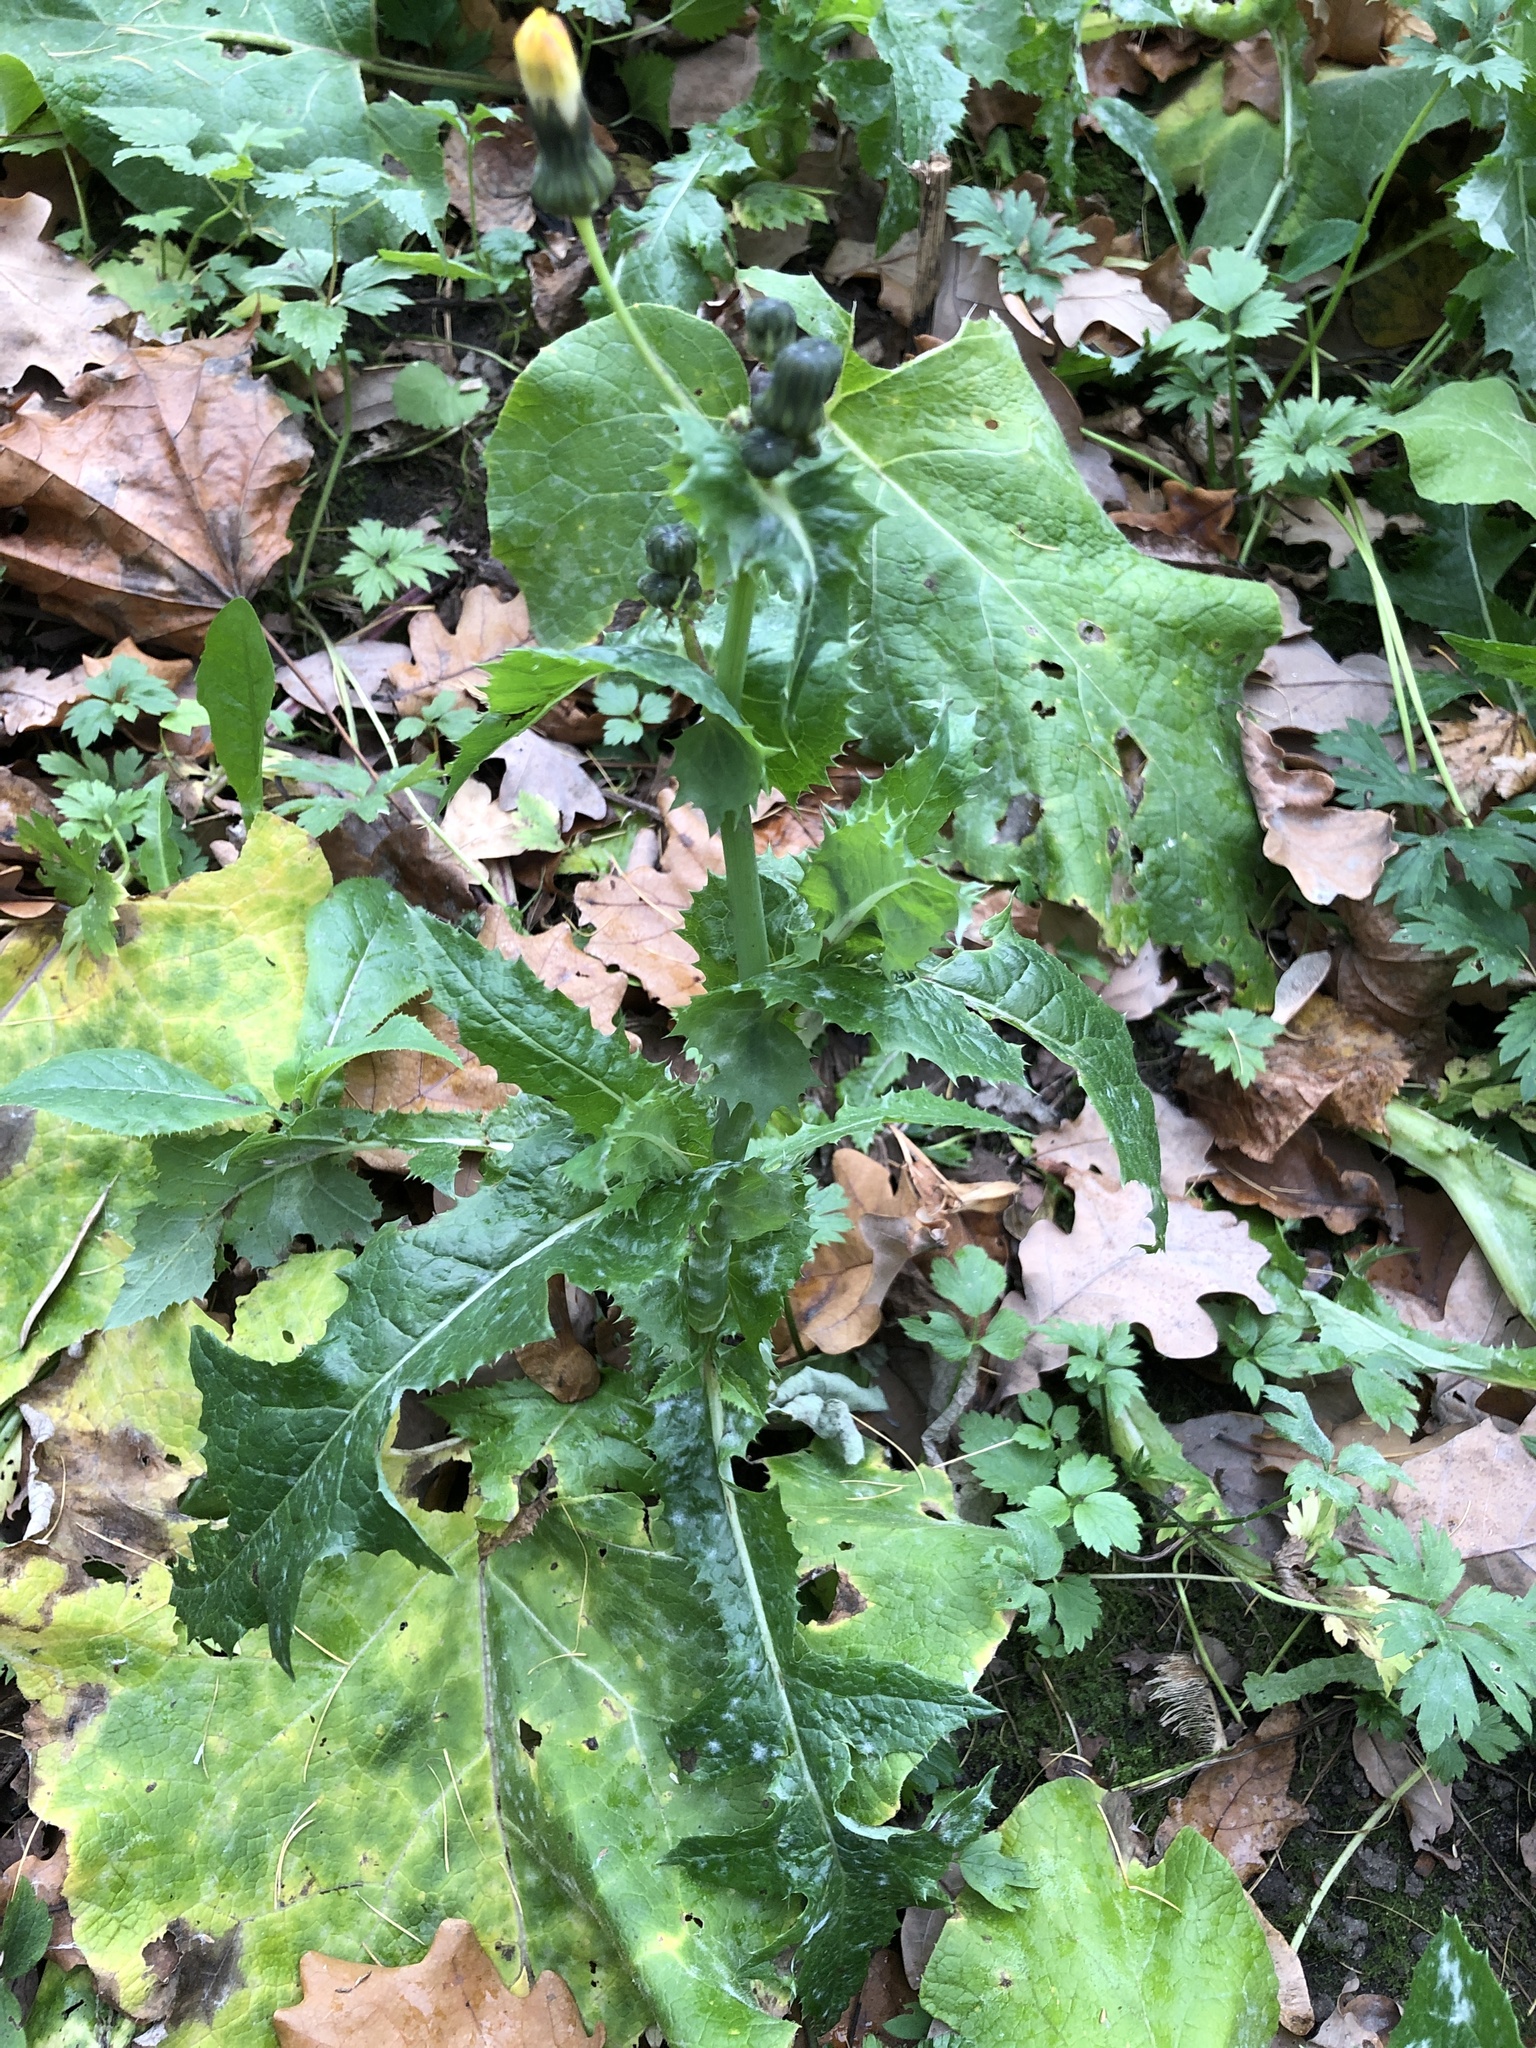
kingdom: Plantae
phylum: Tracheophyta
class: Magnoliopsida
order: Asterales
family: Asteraceae
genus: Sonchus
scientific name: Sonchus asper
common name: Prickly sow-thistle
